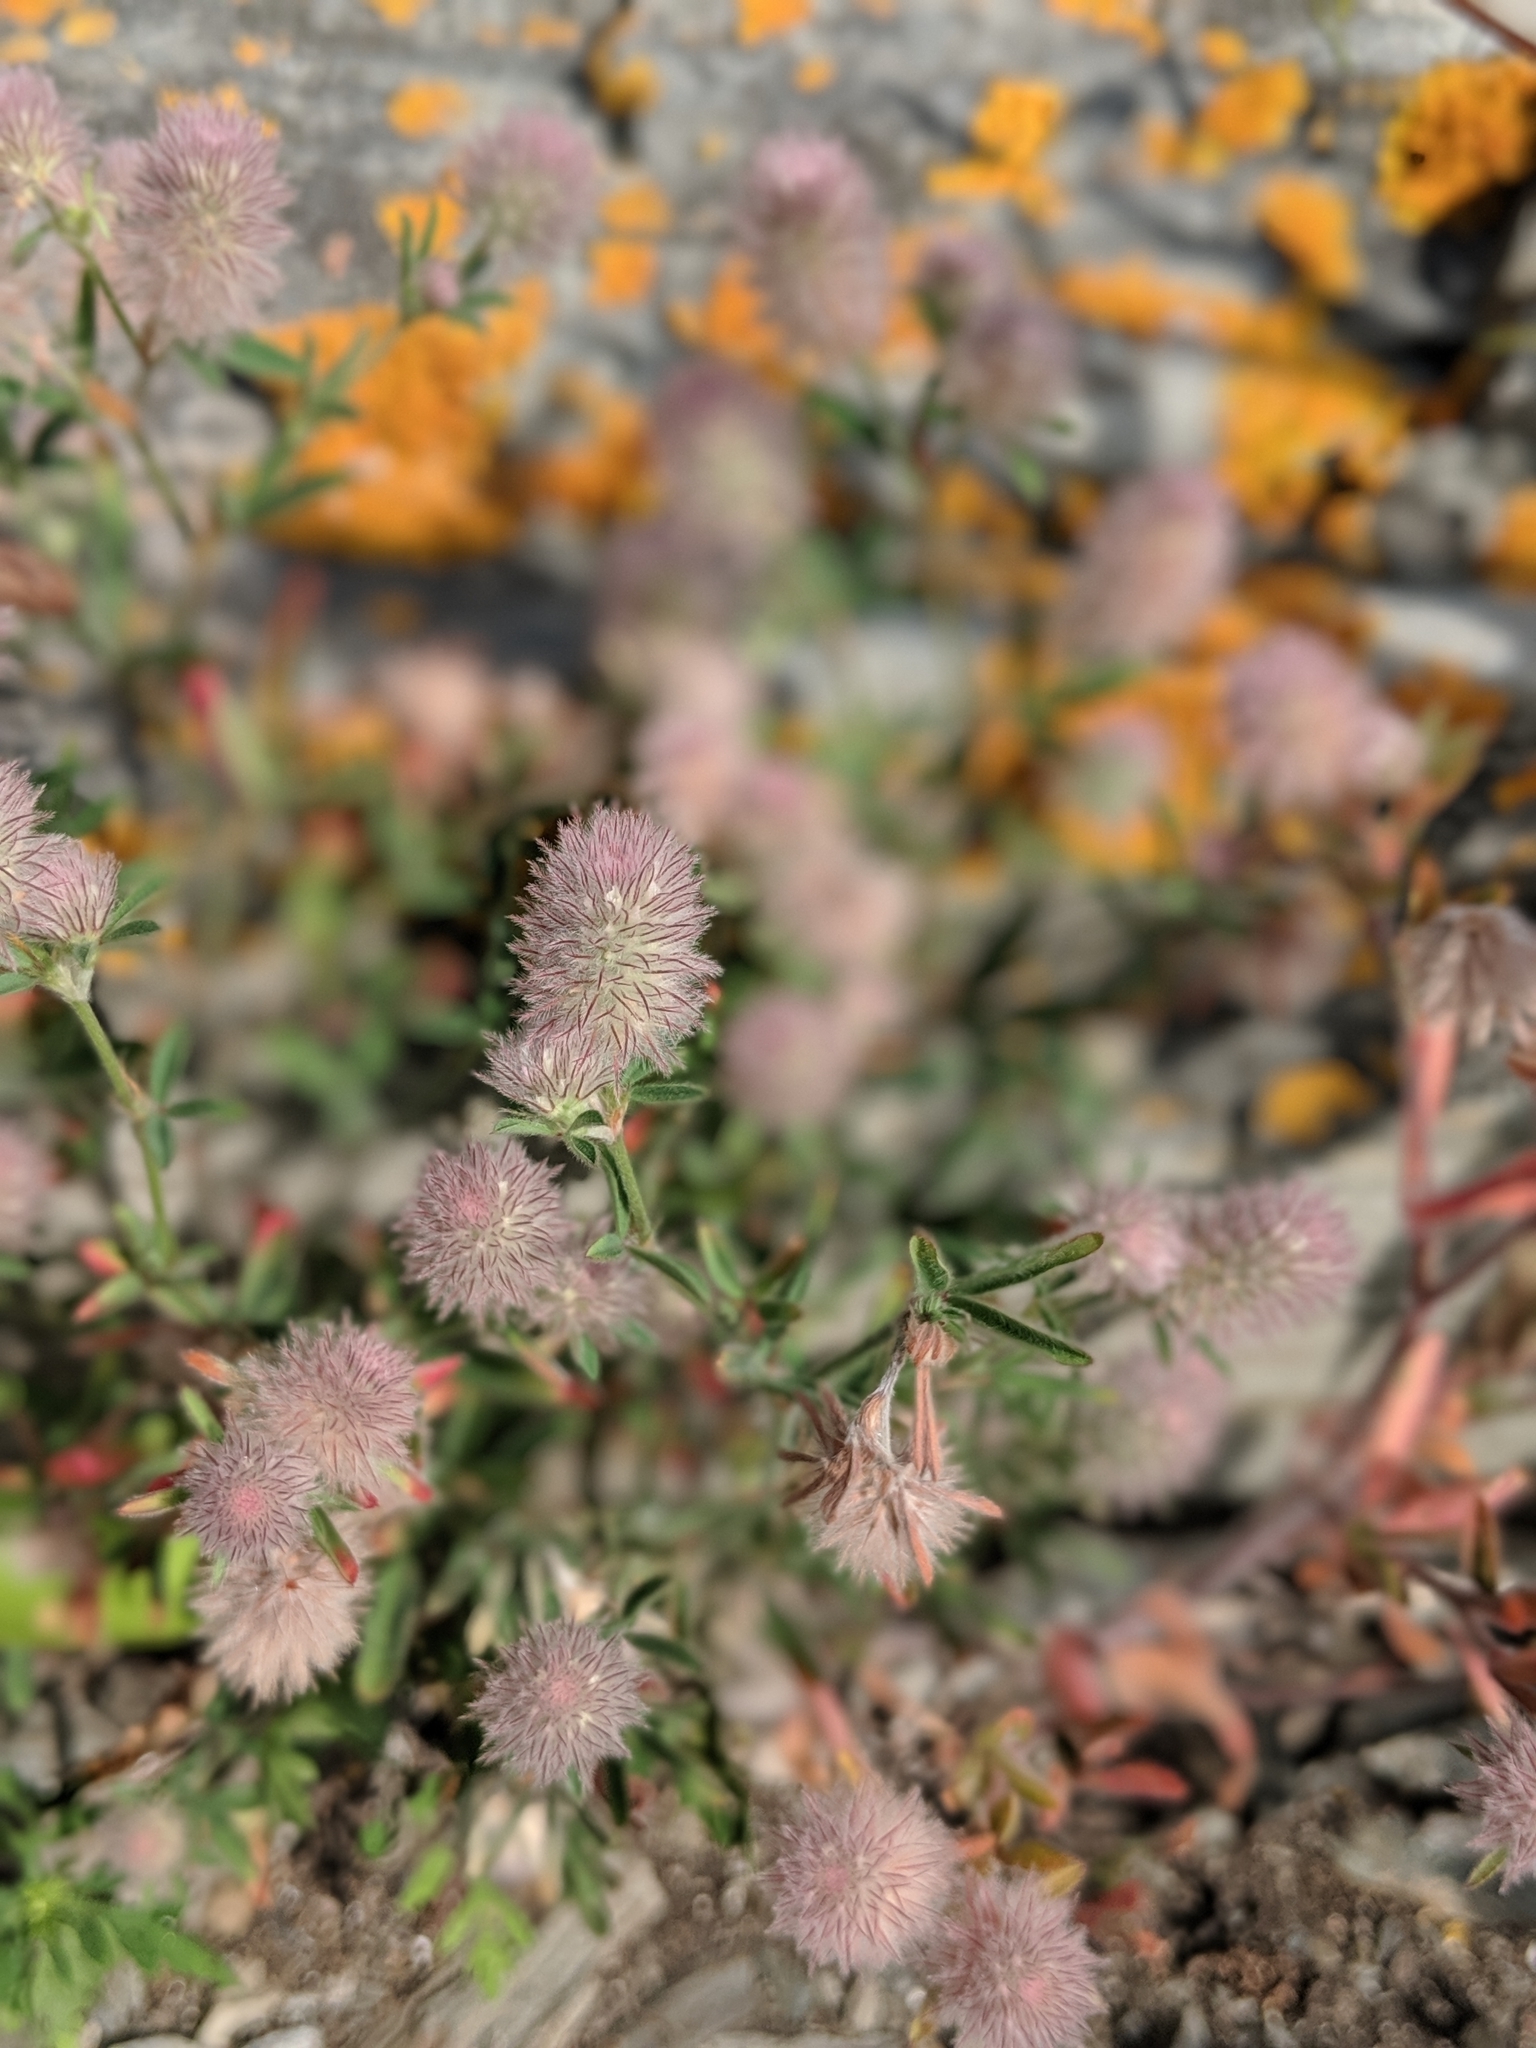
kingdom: Plantae
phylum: Tracheophyta
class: Magnoliopsida
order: Fabales
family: Fabaceae
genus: Trifolium
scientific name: Trifolium arvense
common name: Hare's-foot clover
